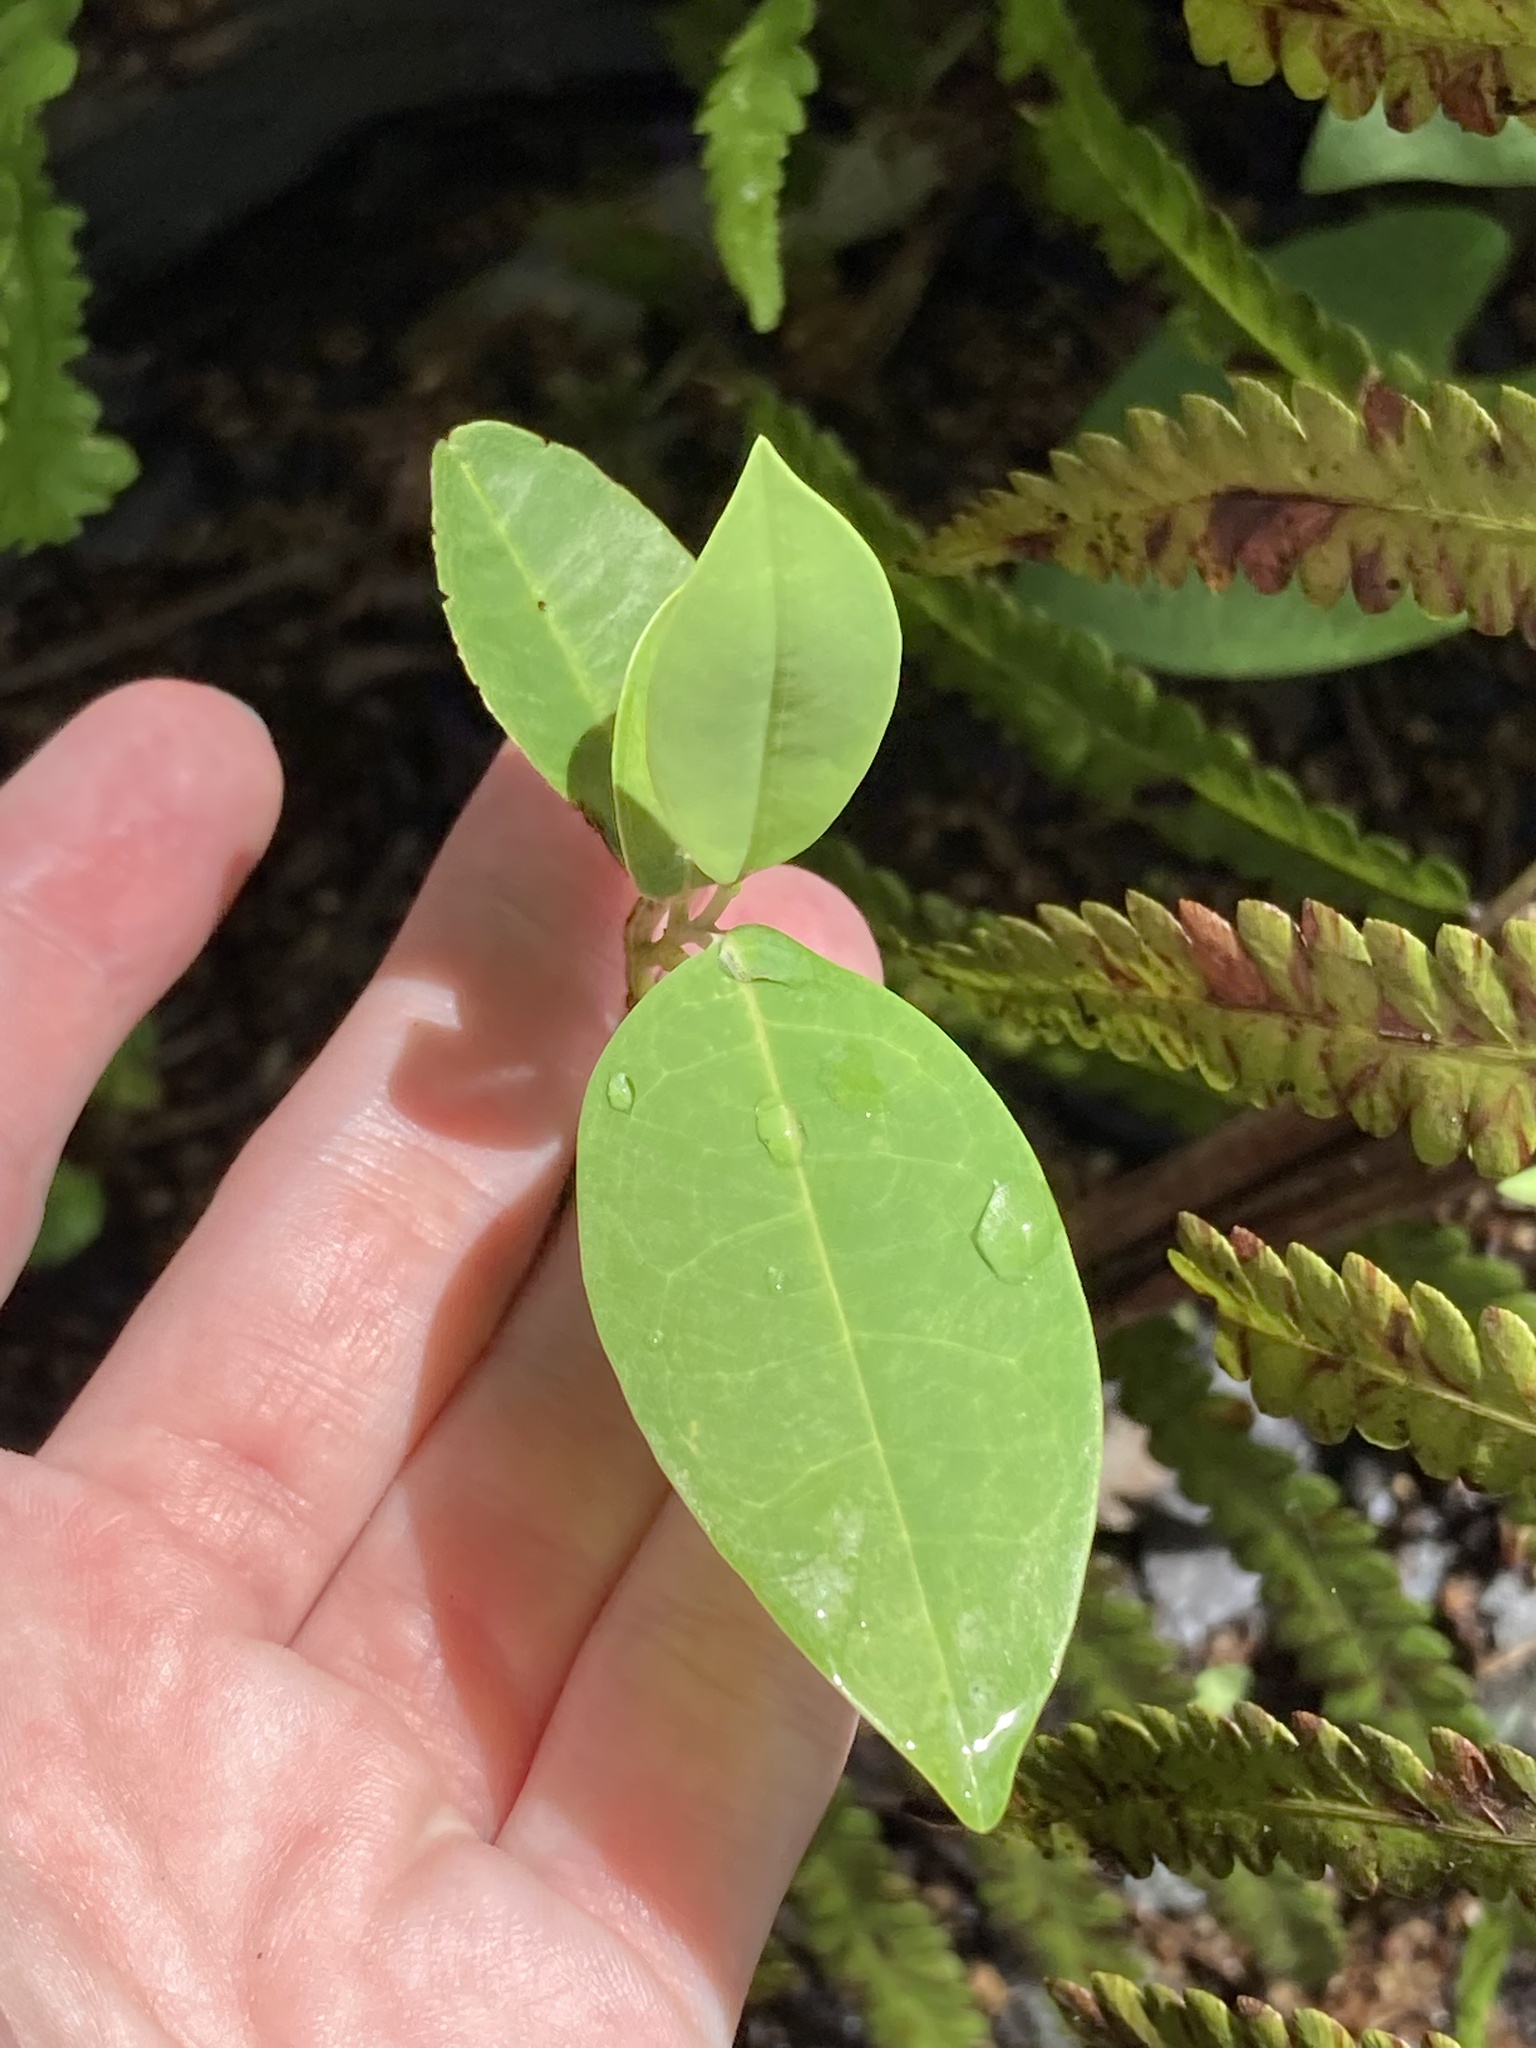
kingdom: Plantae
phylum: Tracheophyta
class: Magnoliopsida
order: Magnoliales
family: Annonaceae
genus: Annona
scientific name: Annona glabra
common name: Monkey apple
